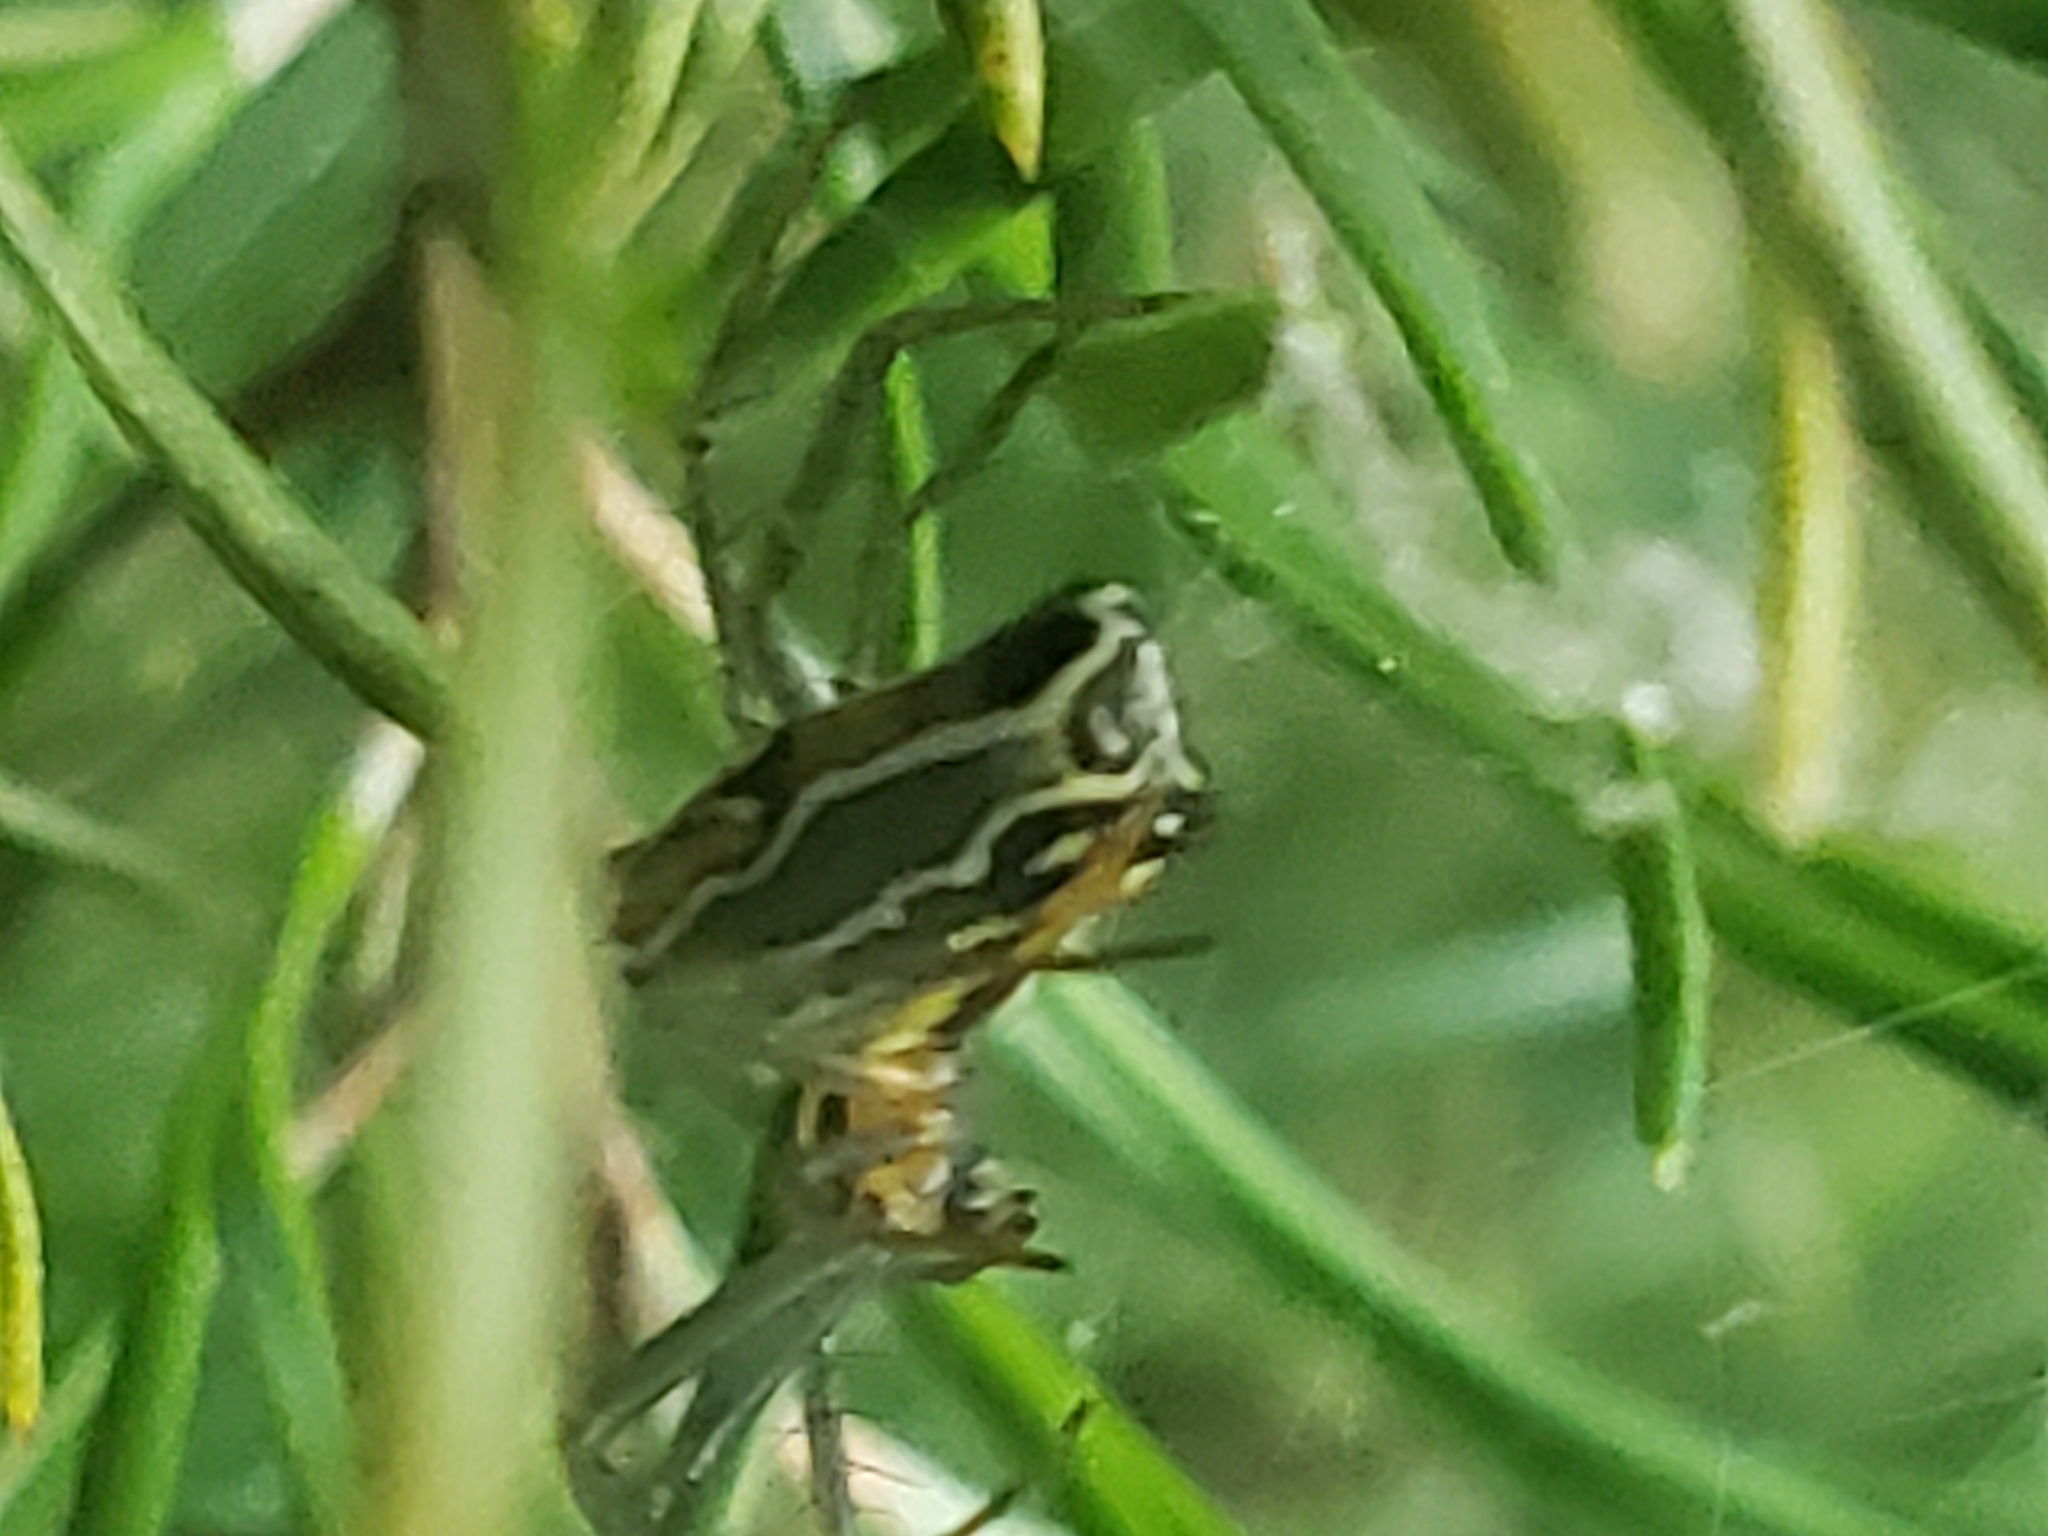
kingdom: Animalia
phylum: Arthropoda
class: Arachnida
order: Araneae
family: Araneidae
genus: Mecynogea
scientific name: Mecynogea lemniscata
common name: Orb weavers
